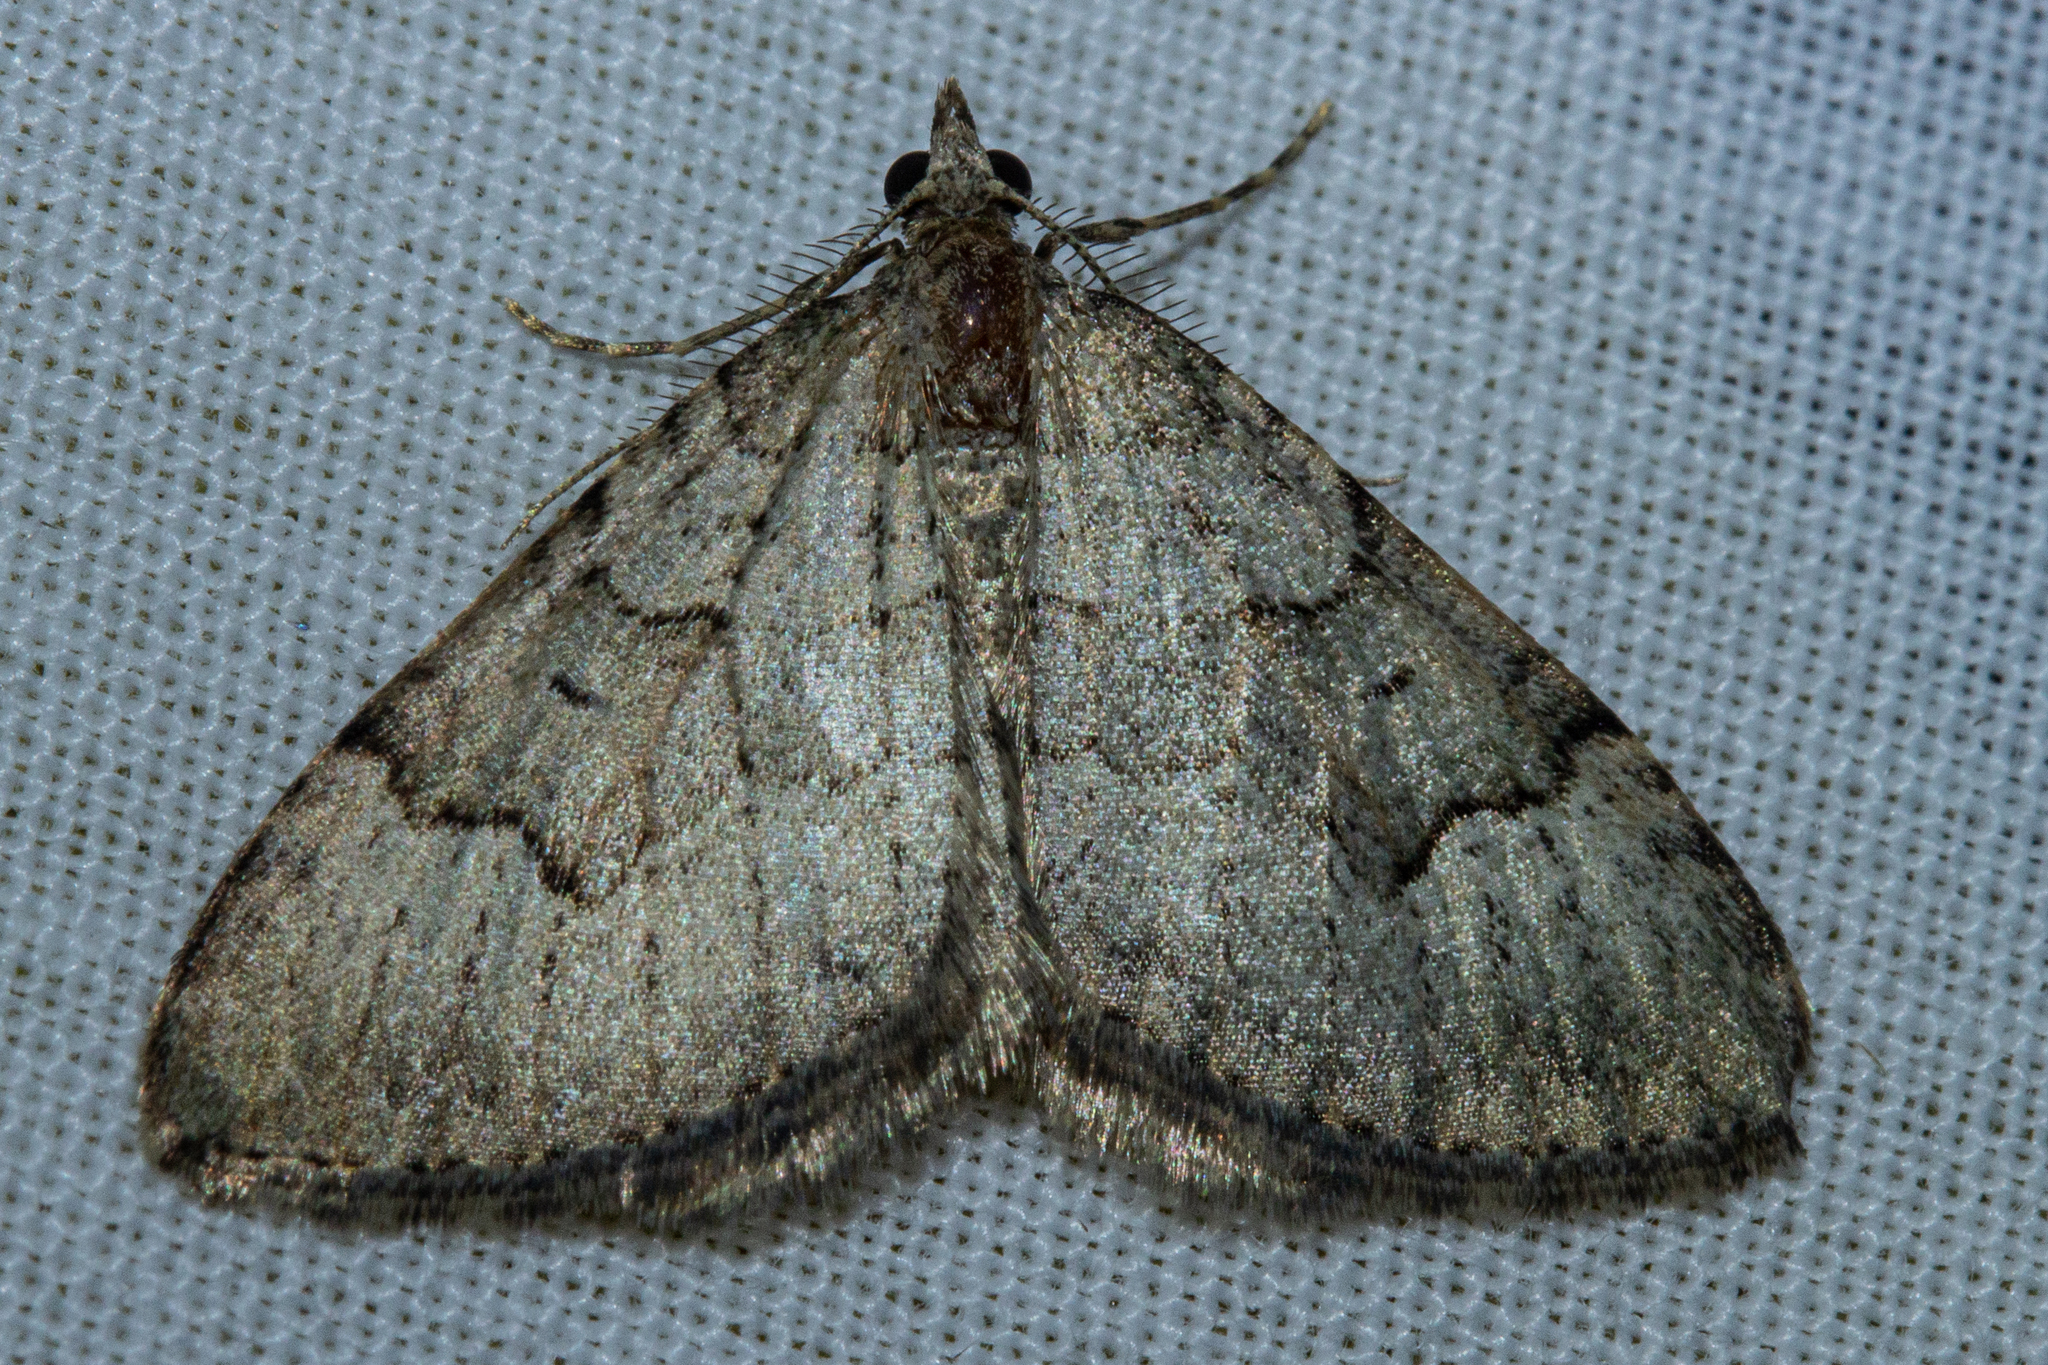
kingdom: Animalia
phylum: Arthropoda
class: Insecta
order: Lepidoptera
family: Geometridae
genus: Epyaxa
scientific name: Epyaxa rosearia
